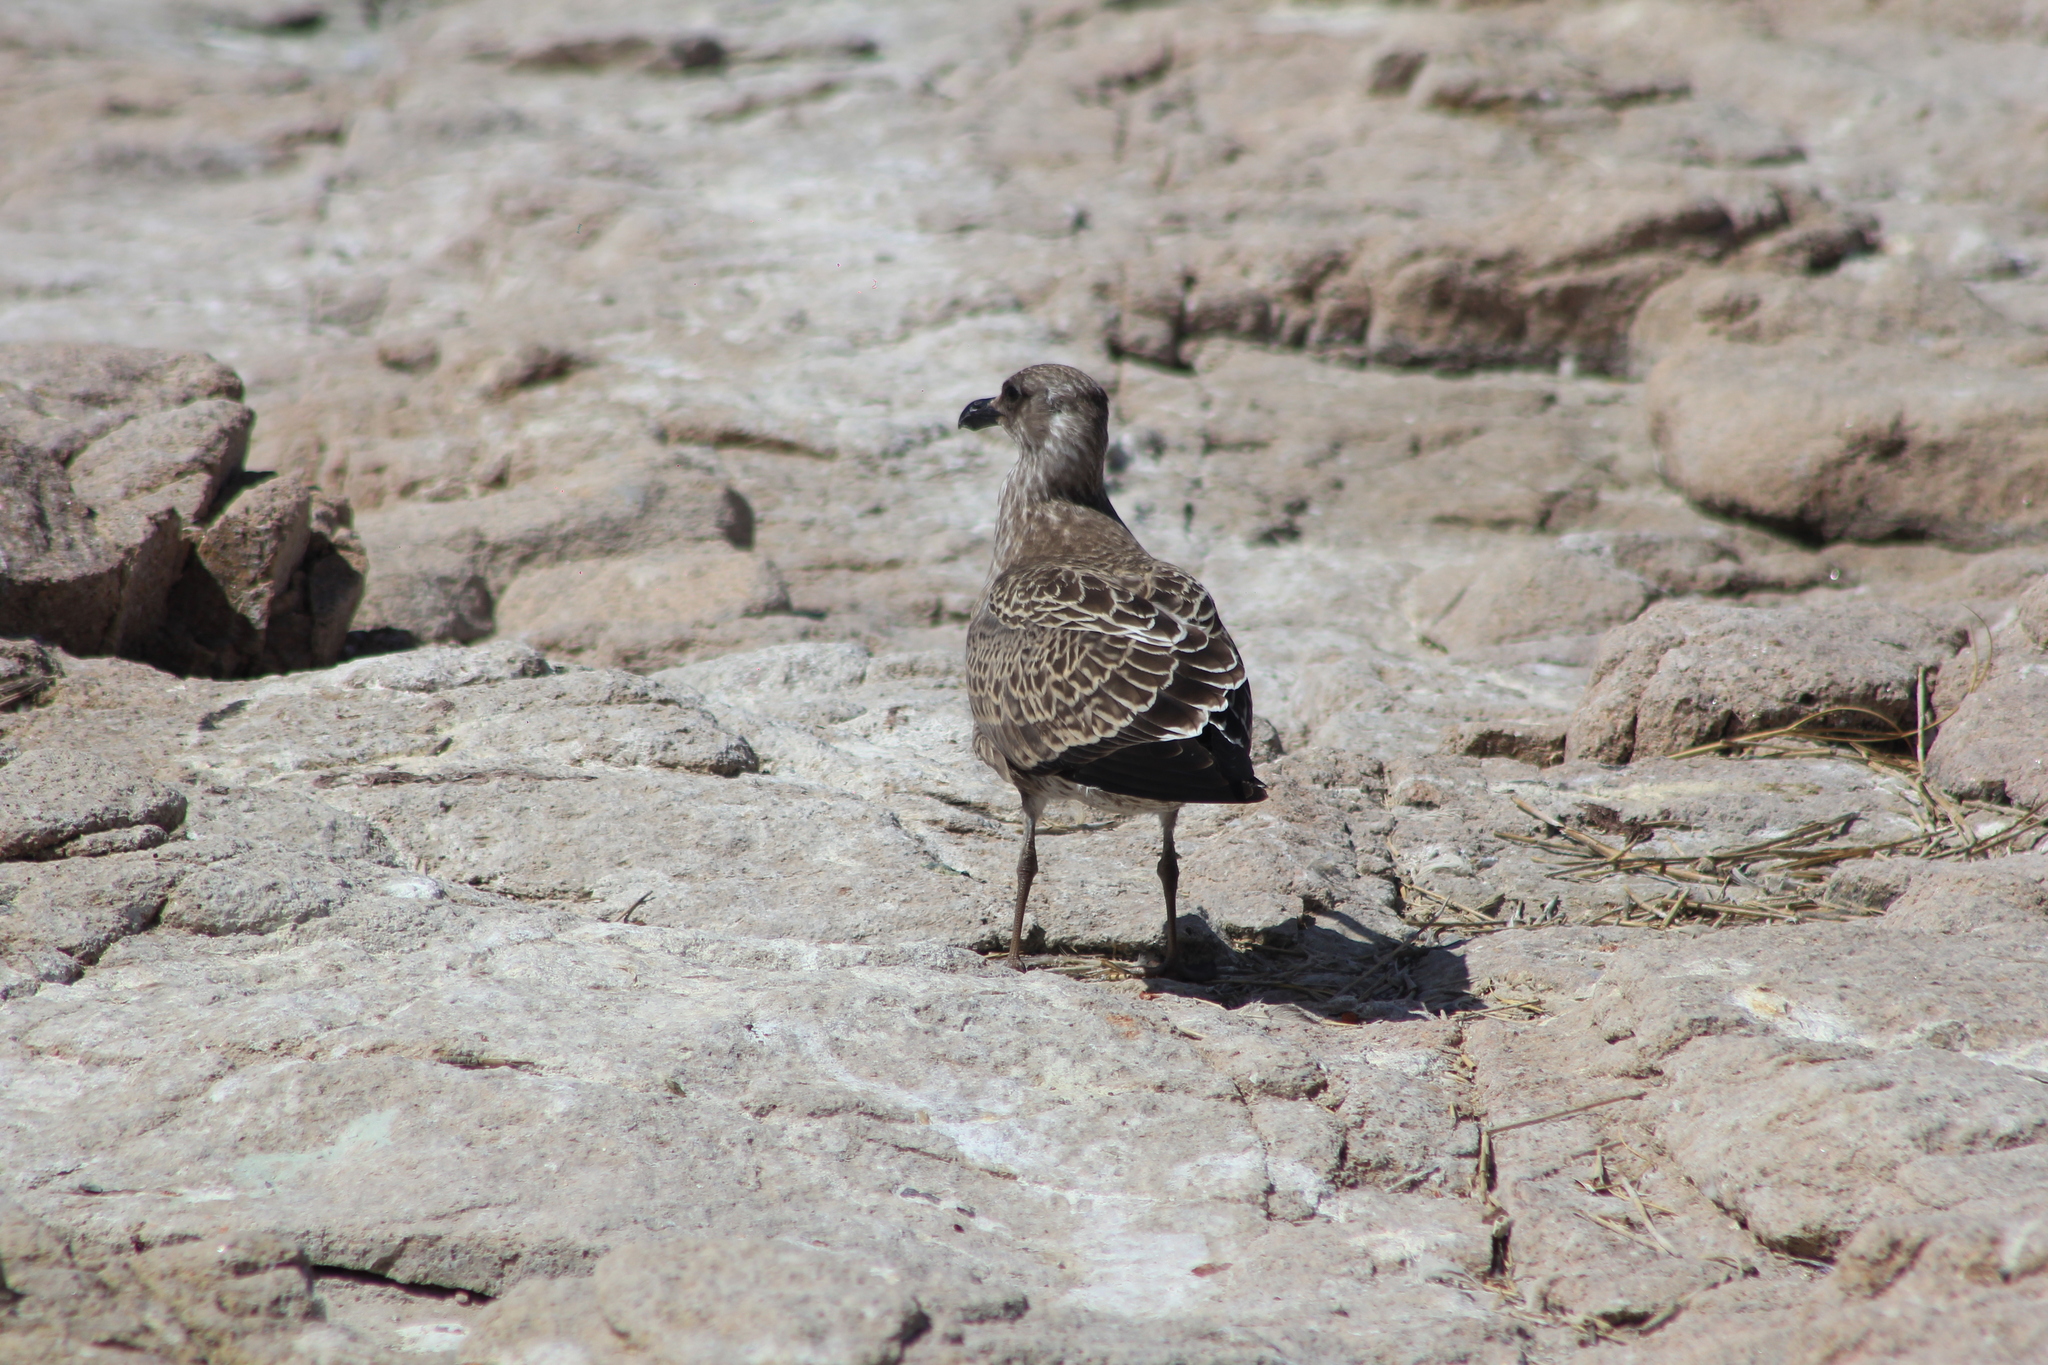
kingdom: Animalia
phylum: Chordata
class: Aves
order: Charadriiformes
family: Laridae
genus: Larus
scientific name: Larus dominicanus
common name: Kelp gull
